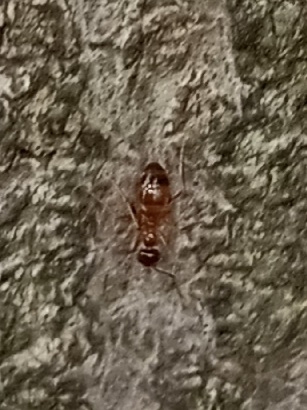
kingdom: Animalia
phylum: Arthropoda
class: Insecta
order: Hymenoptera
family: Formicidae
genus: Prenolepis
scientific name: Prenolepis imparis
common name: Small honey ant
